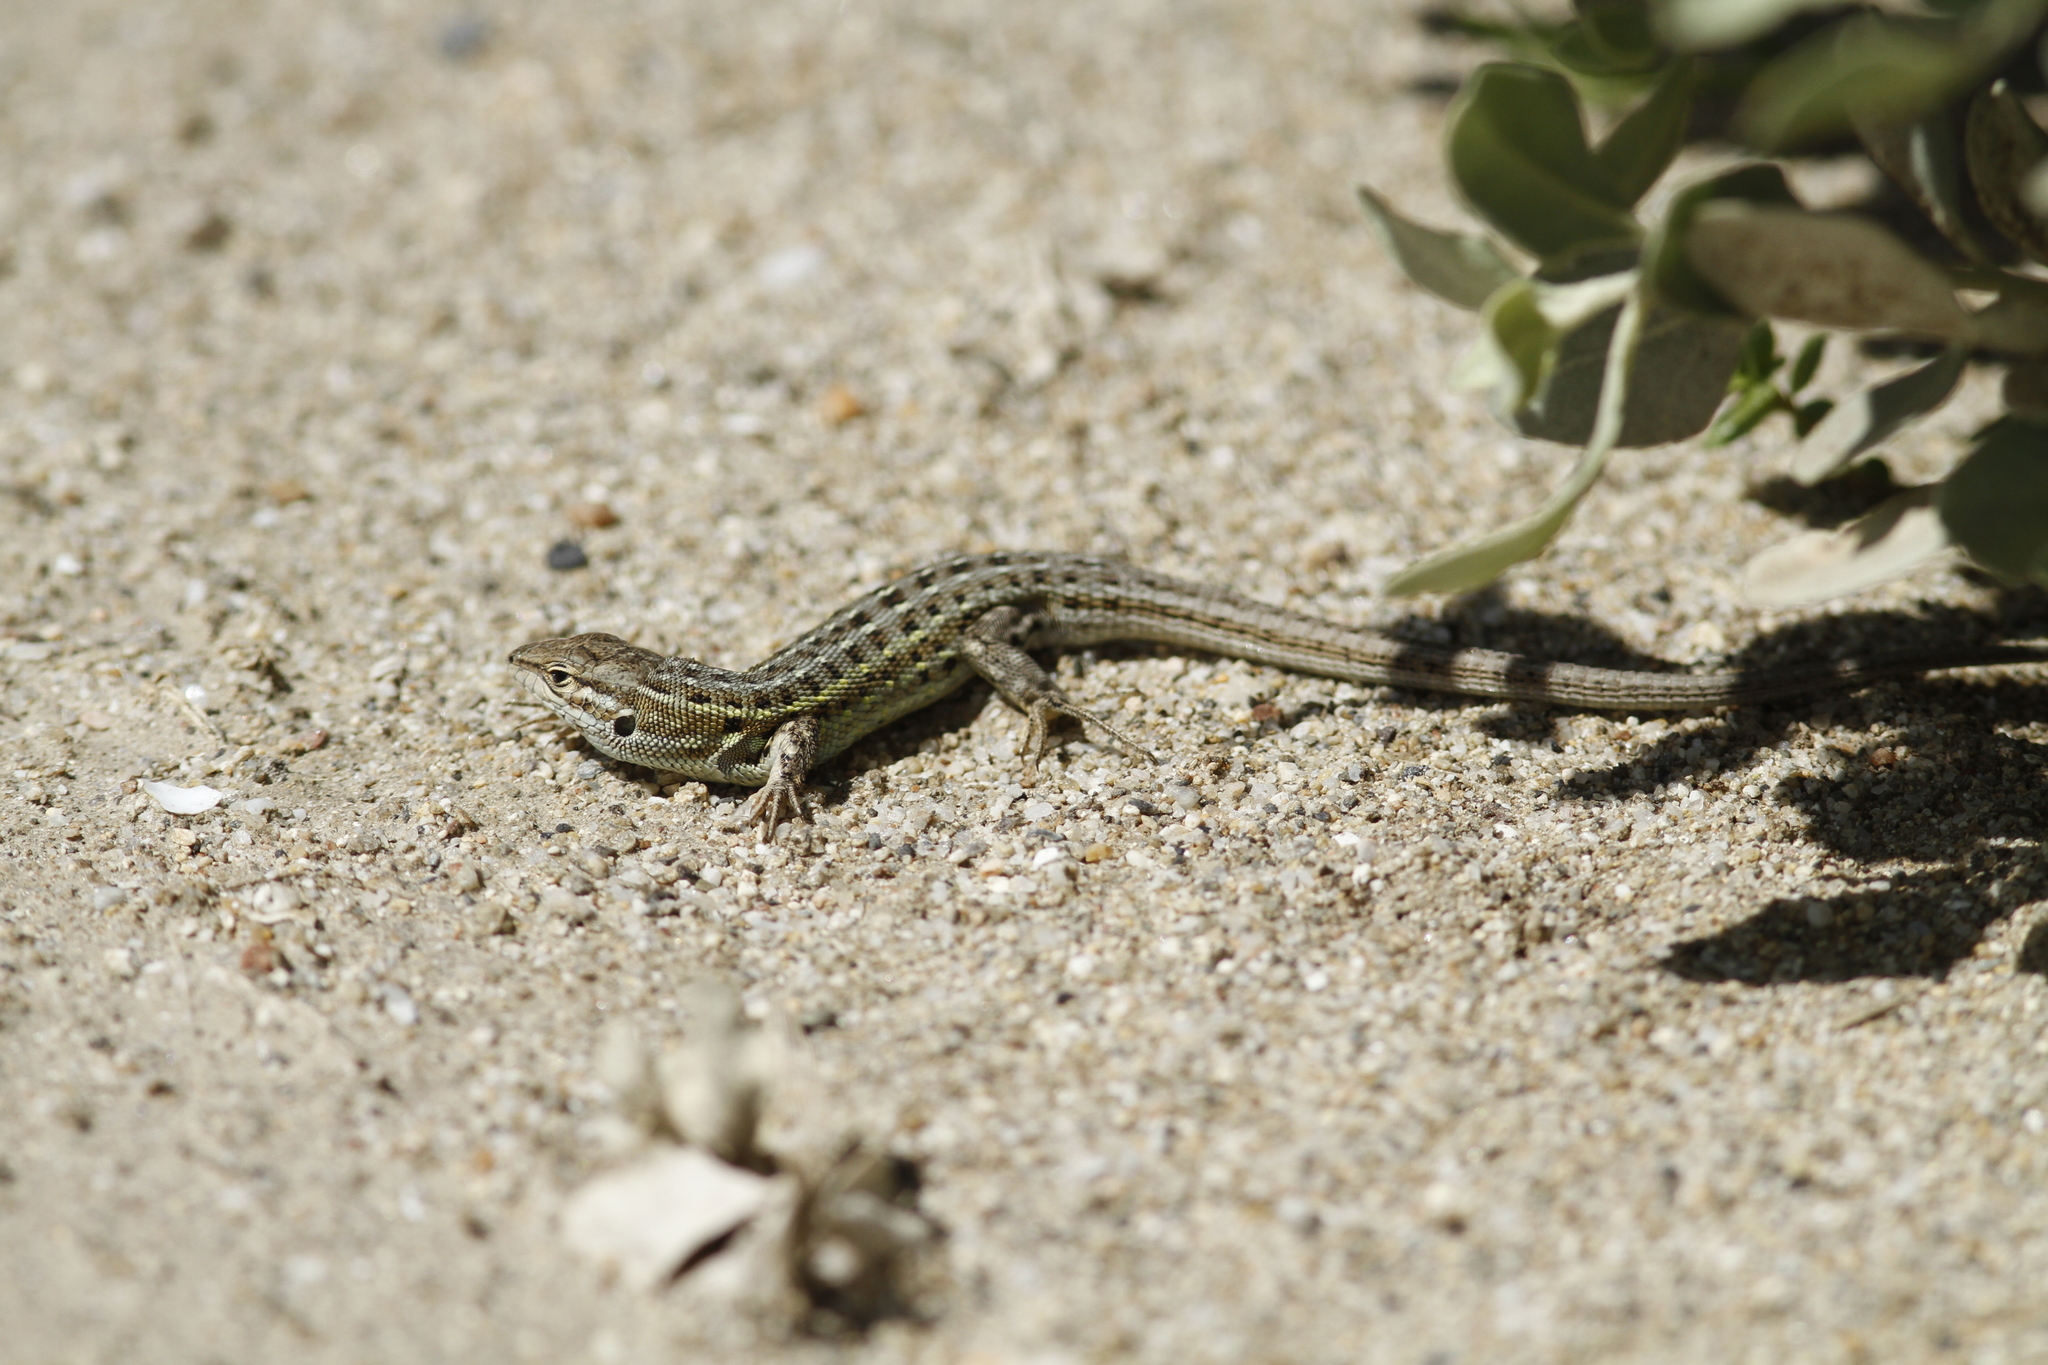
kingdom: Animalia
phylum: Chordata
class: Squamata
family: Lacertidae
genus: Psammodromus
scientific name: Psammodromus edwarsianus
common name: East iberian psammodromus
